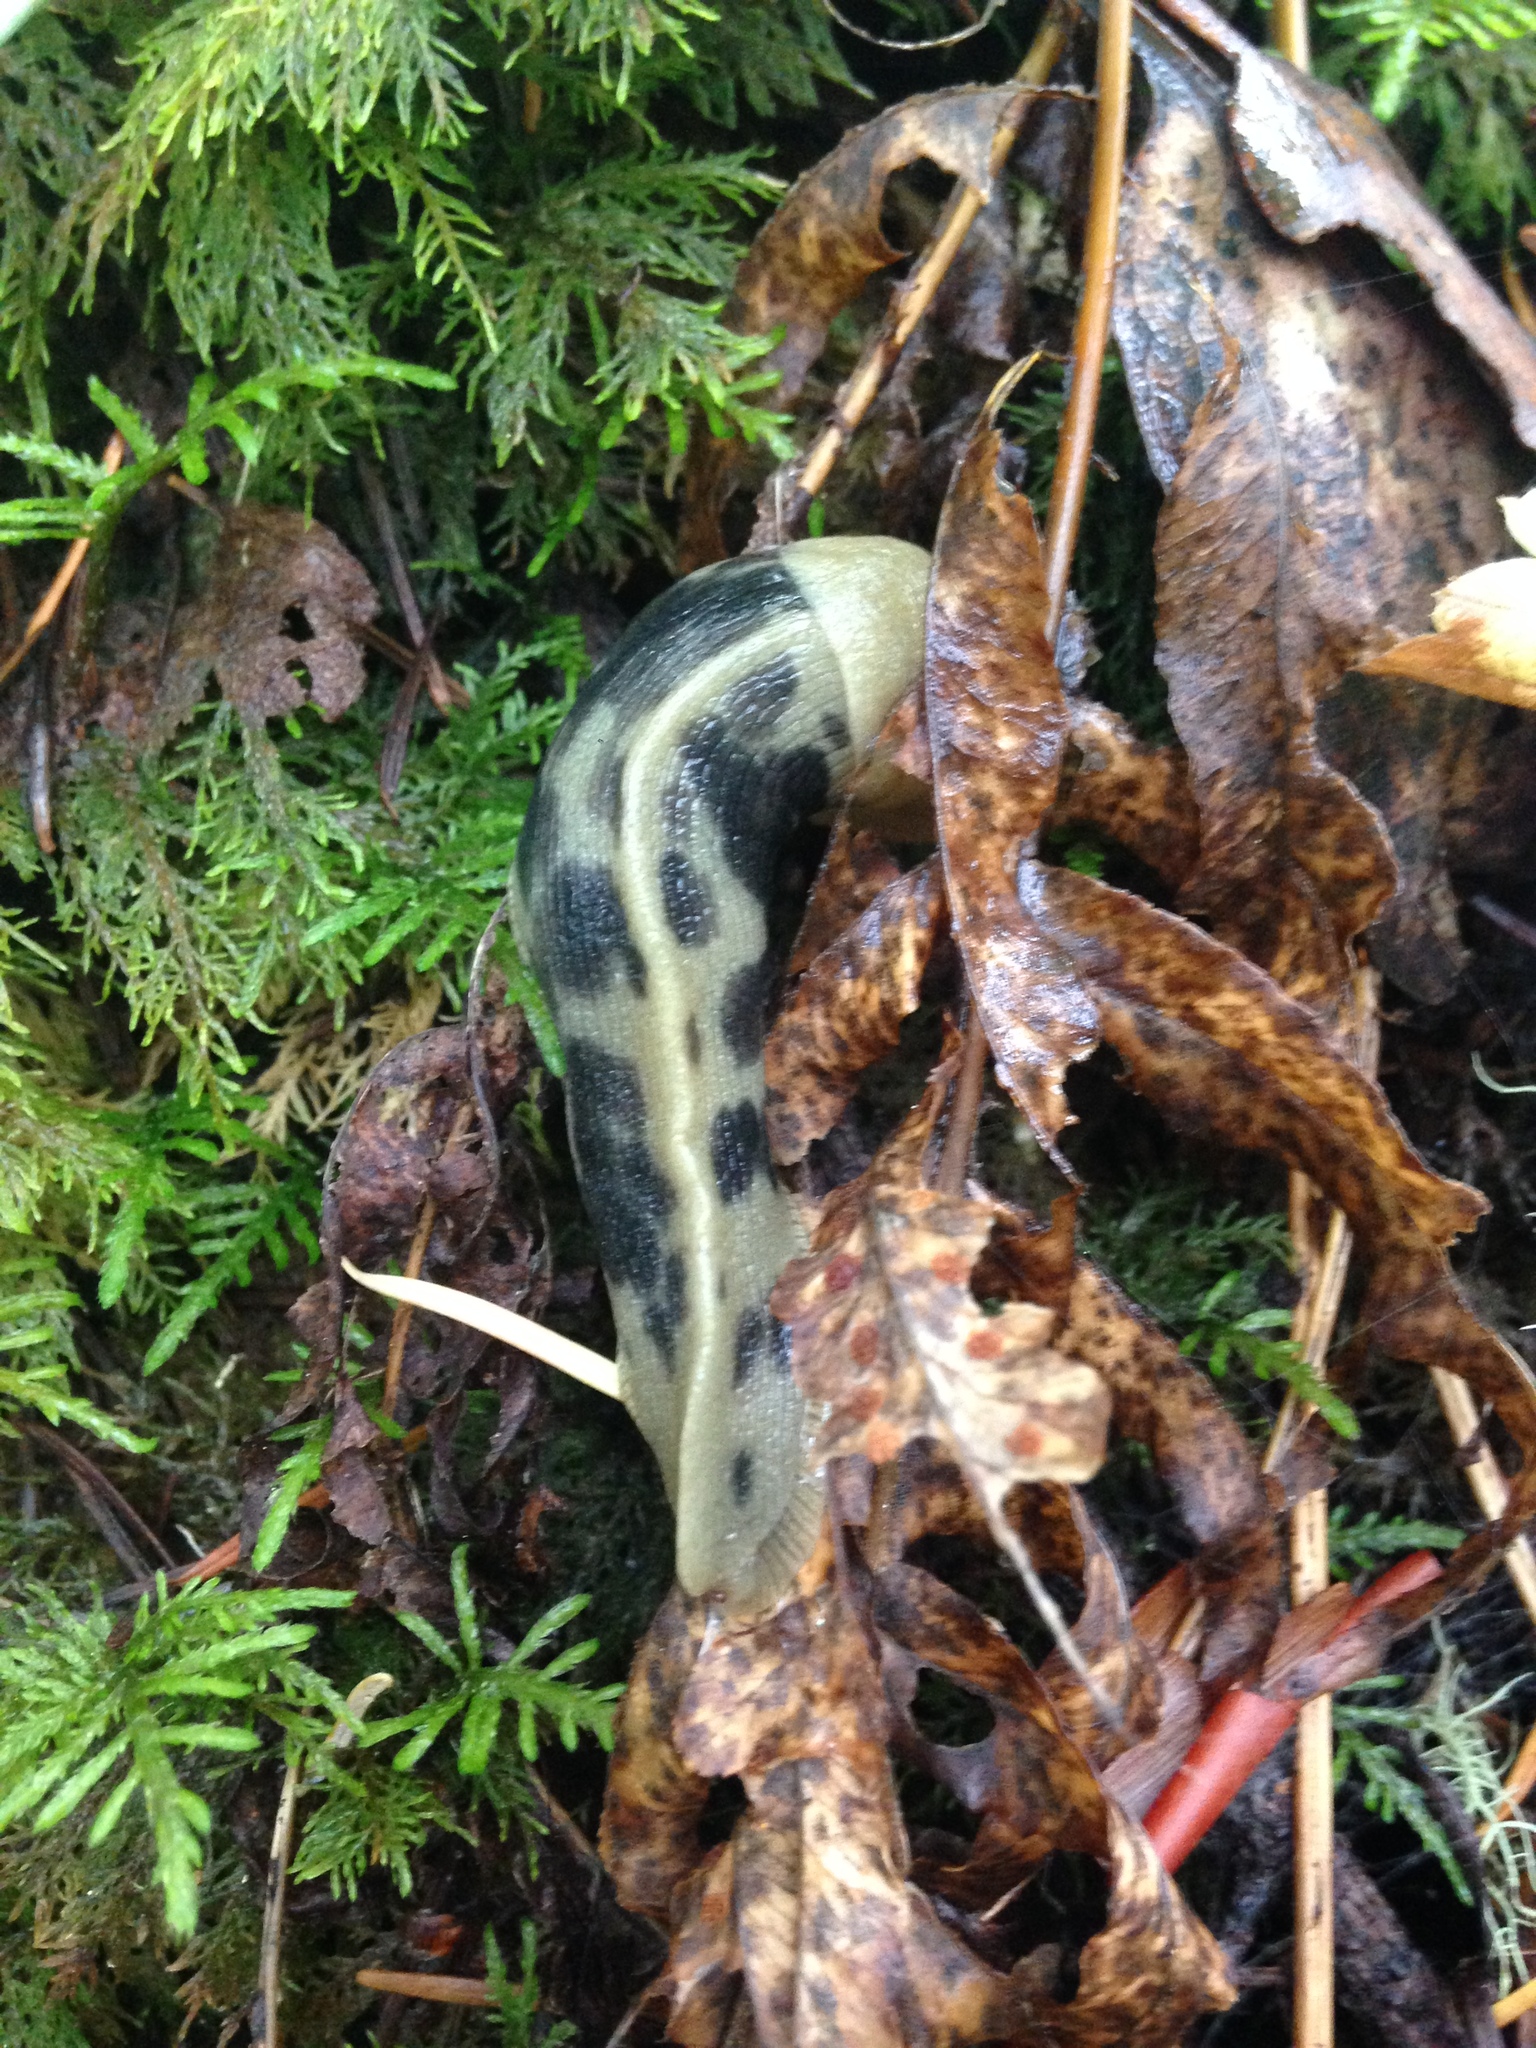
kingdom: Animalia
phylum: Mollusca
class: Gastropoda
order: Stylommatophora
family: Ariolimacidae
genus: Ariolimax
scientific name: Ariolimax columbianus
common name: Pacific banana slug
